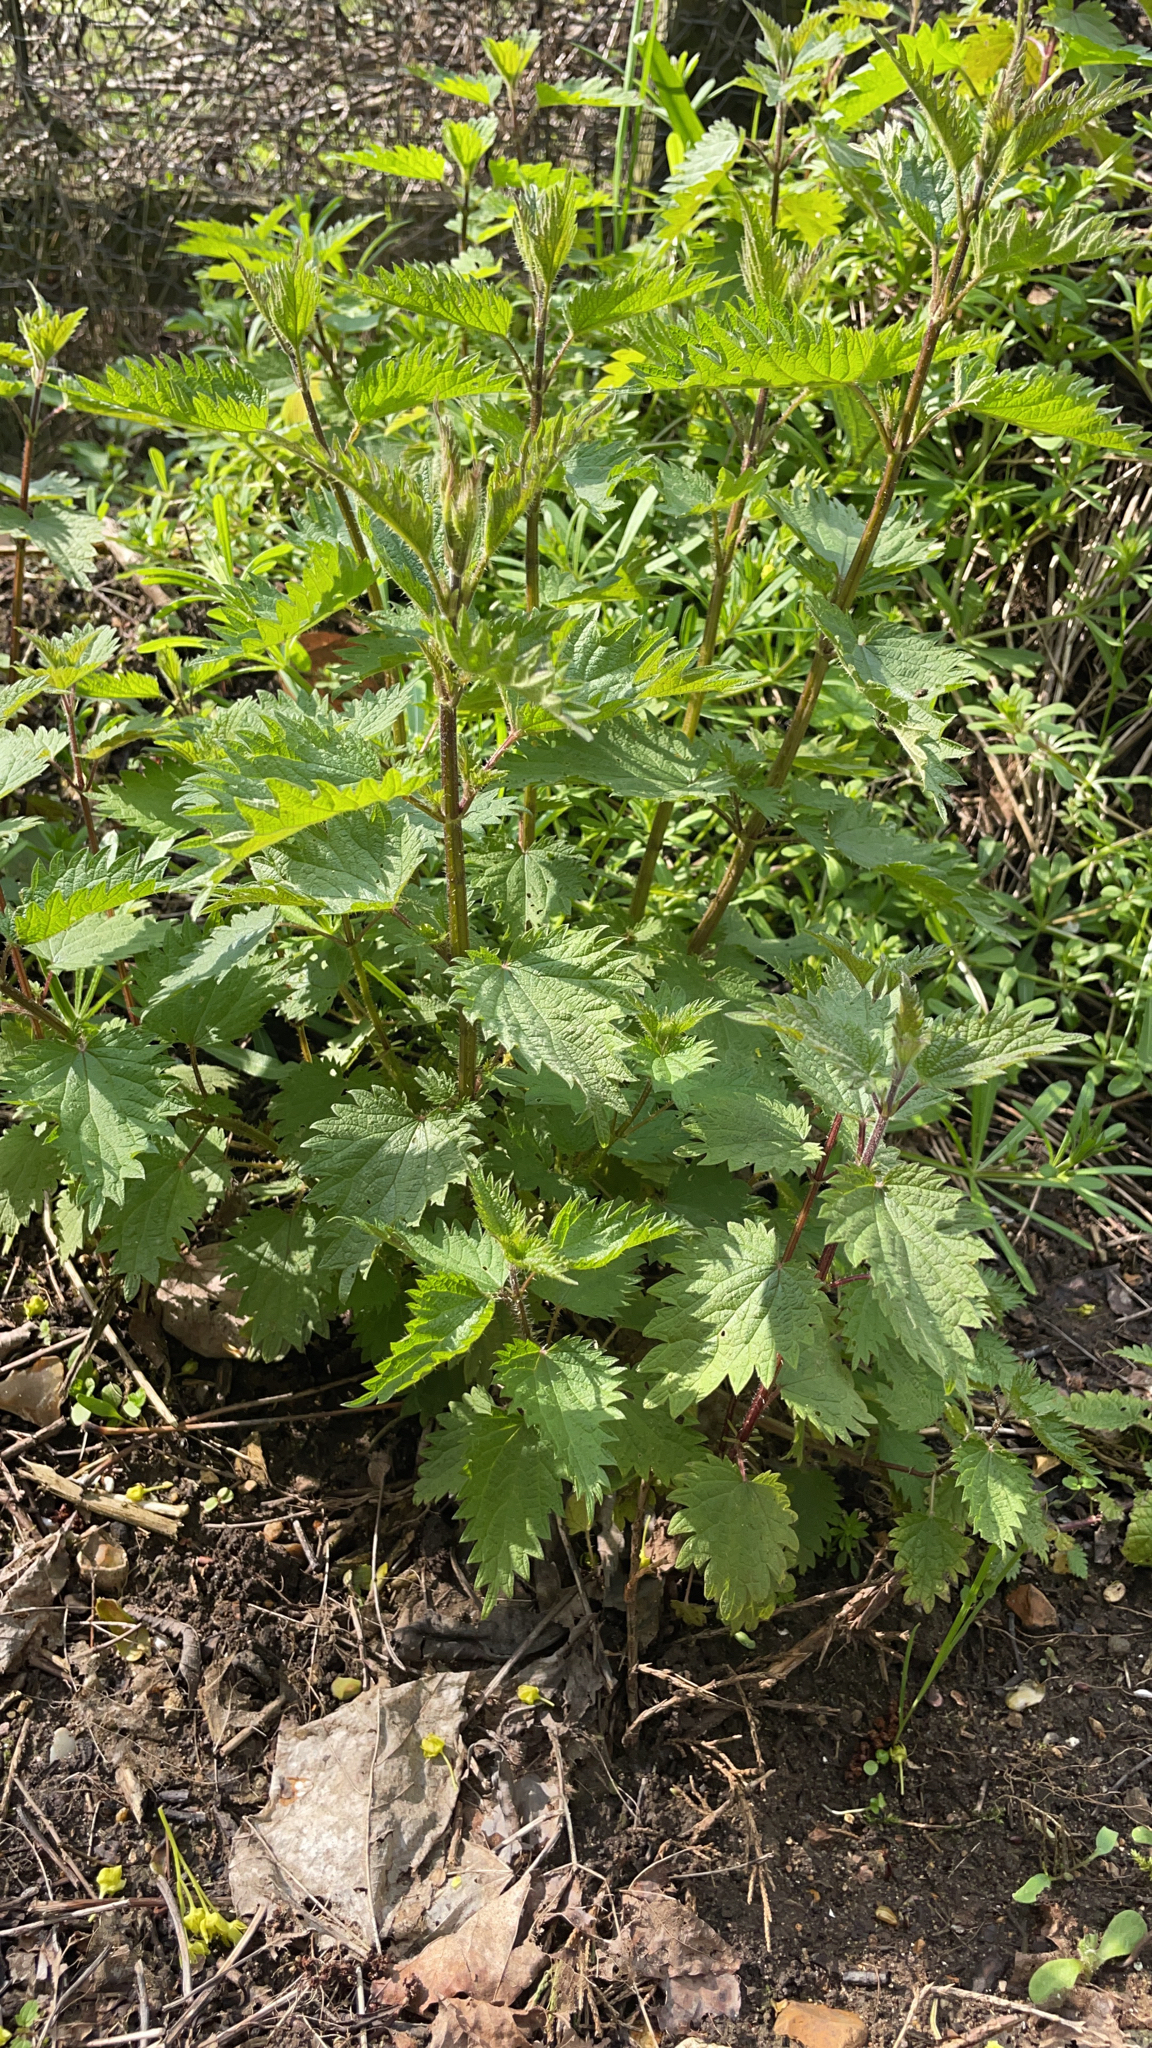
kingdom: Plantae
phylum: Tracheophyta
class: Magnoliopsida
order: Rosales
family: Urticaceae
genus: Urtica
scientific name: Urtica dioica
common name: Common nettle
